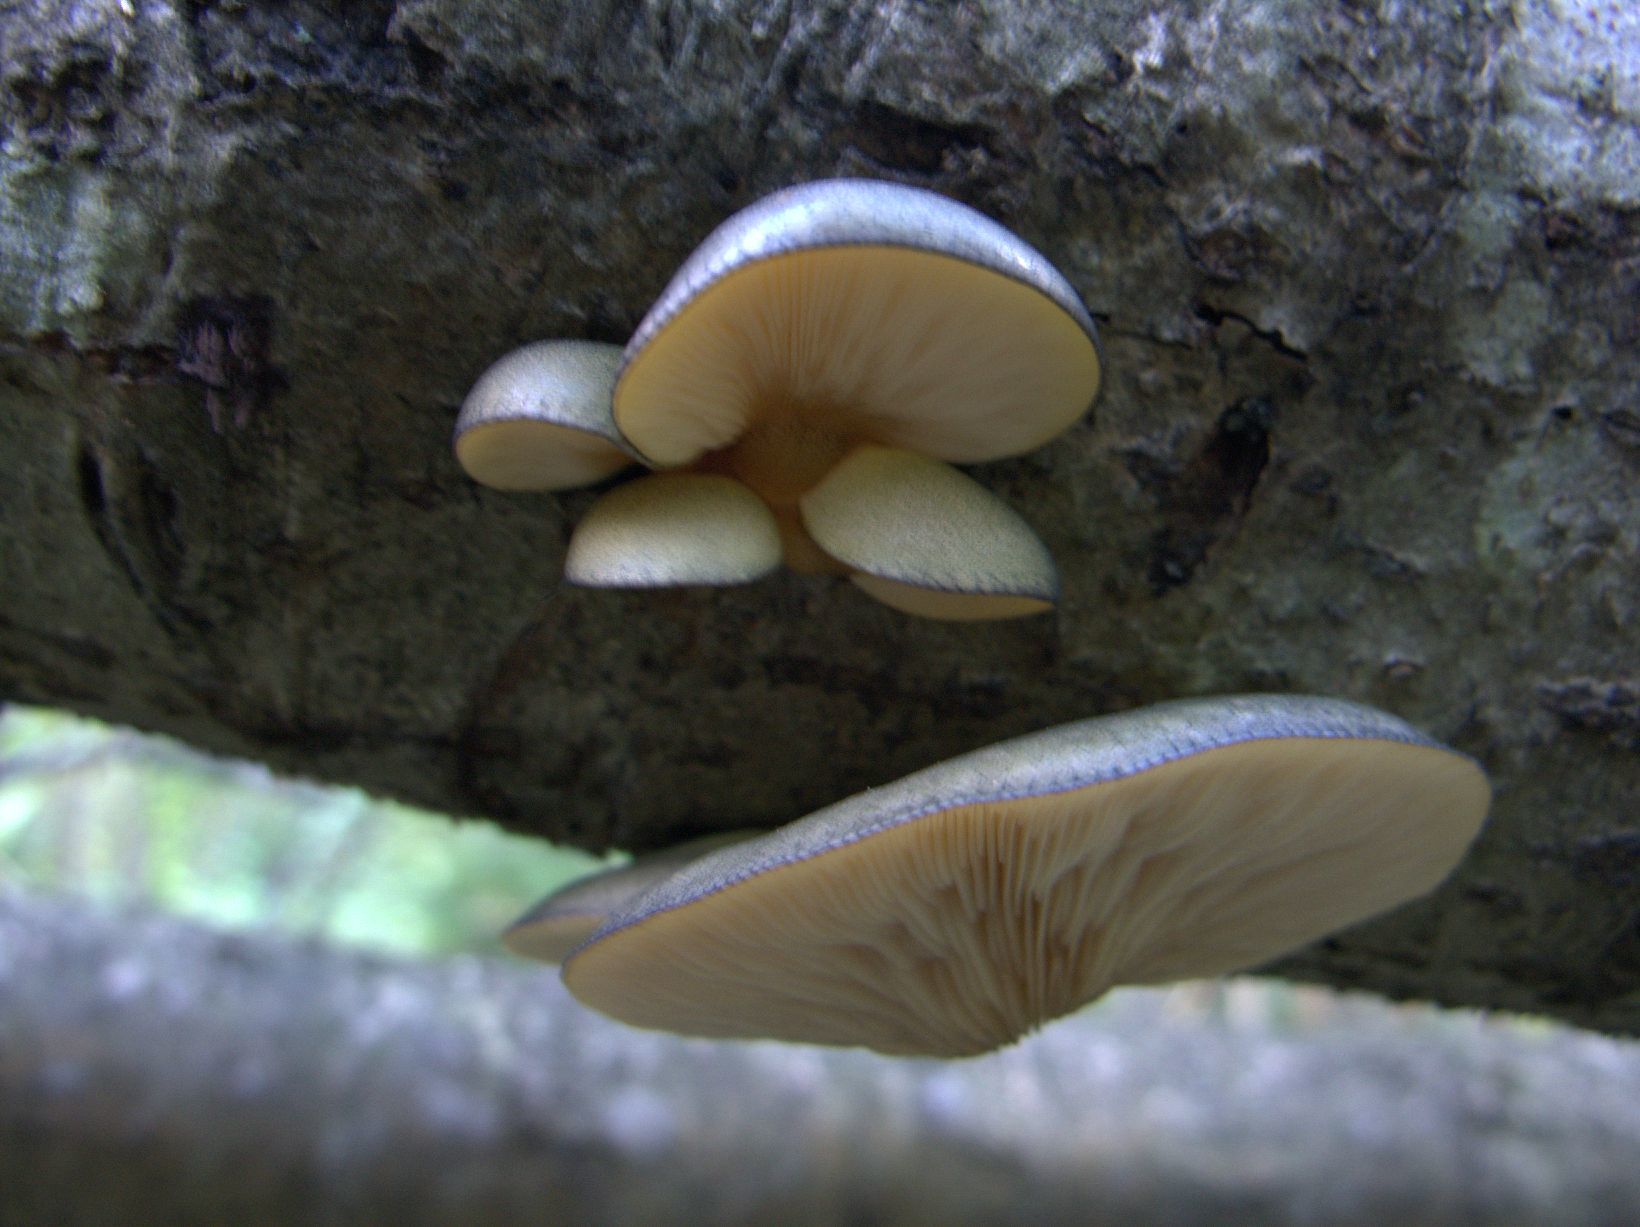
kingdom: Fungi
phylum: Basidiomycota
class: Agaricomycetes
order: Agaricales
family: Sarcomyxaceae
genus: Sarcomyxa
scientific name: Sarcomyxa serotina
